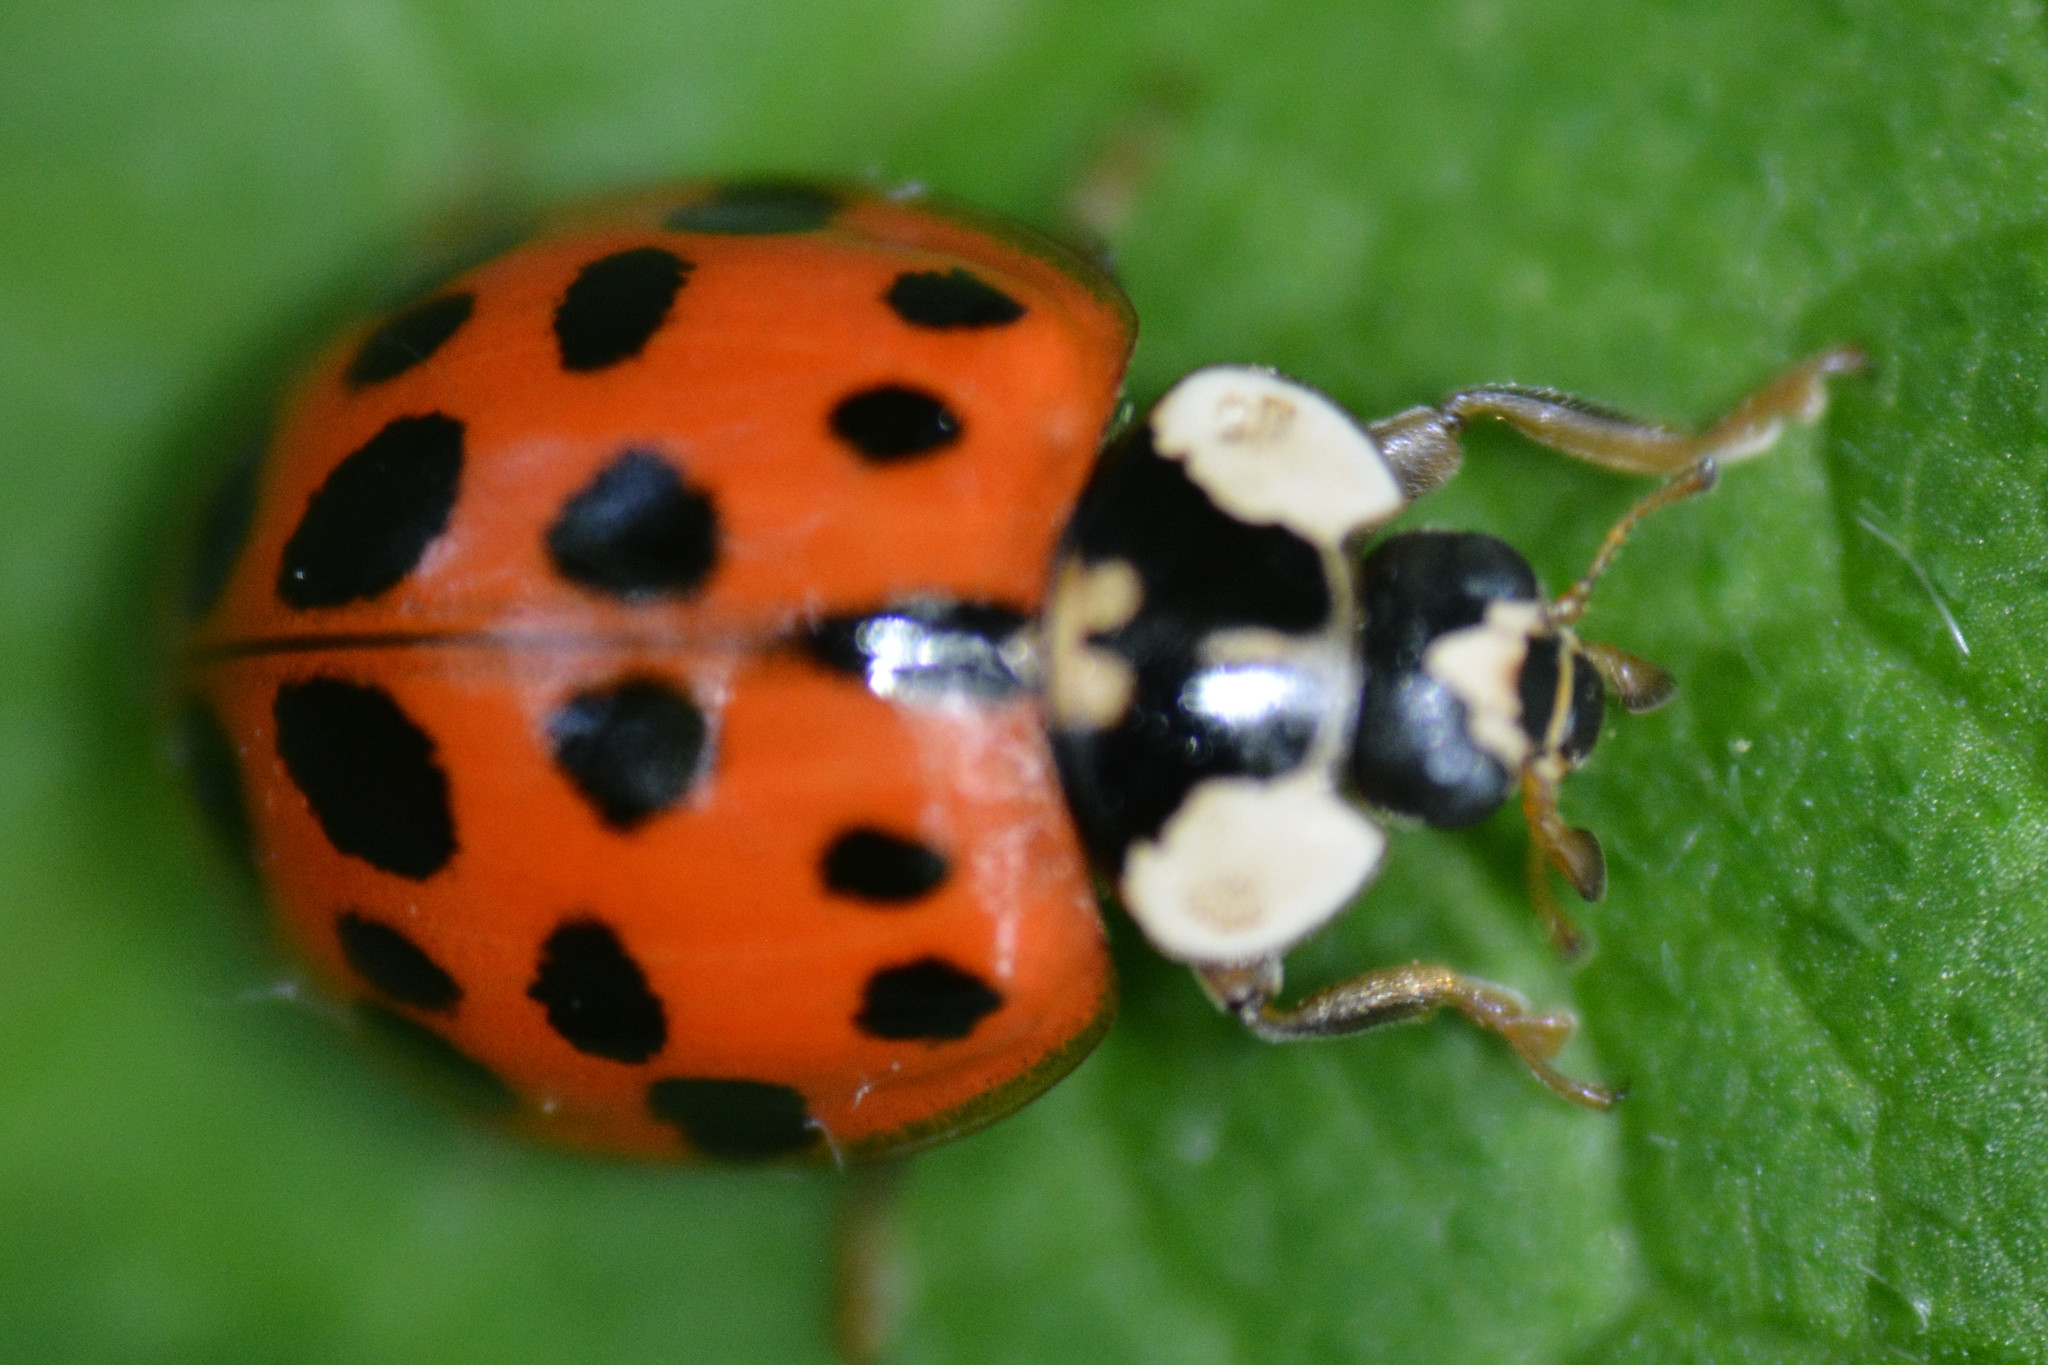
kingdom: Animalia
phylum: Arthropoda
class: Insecta
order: Coleoptera
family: Coccinellidae
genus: Harmonia
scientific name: Harmonia axyridis
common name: Harlequin ladybird
